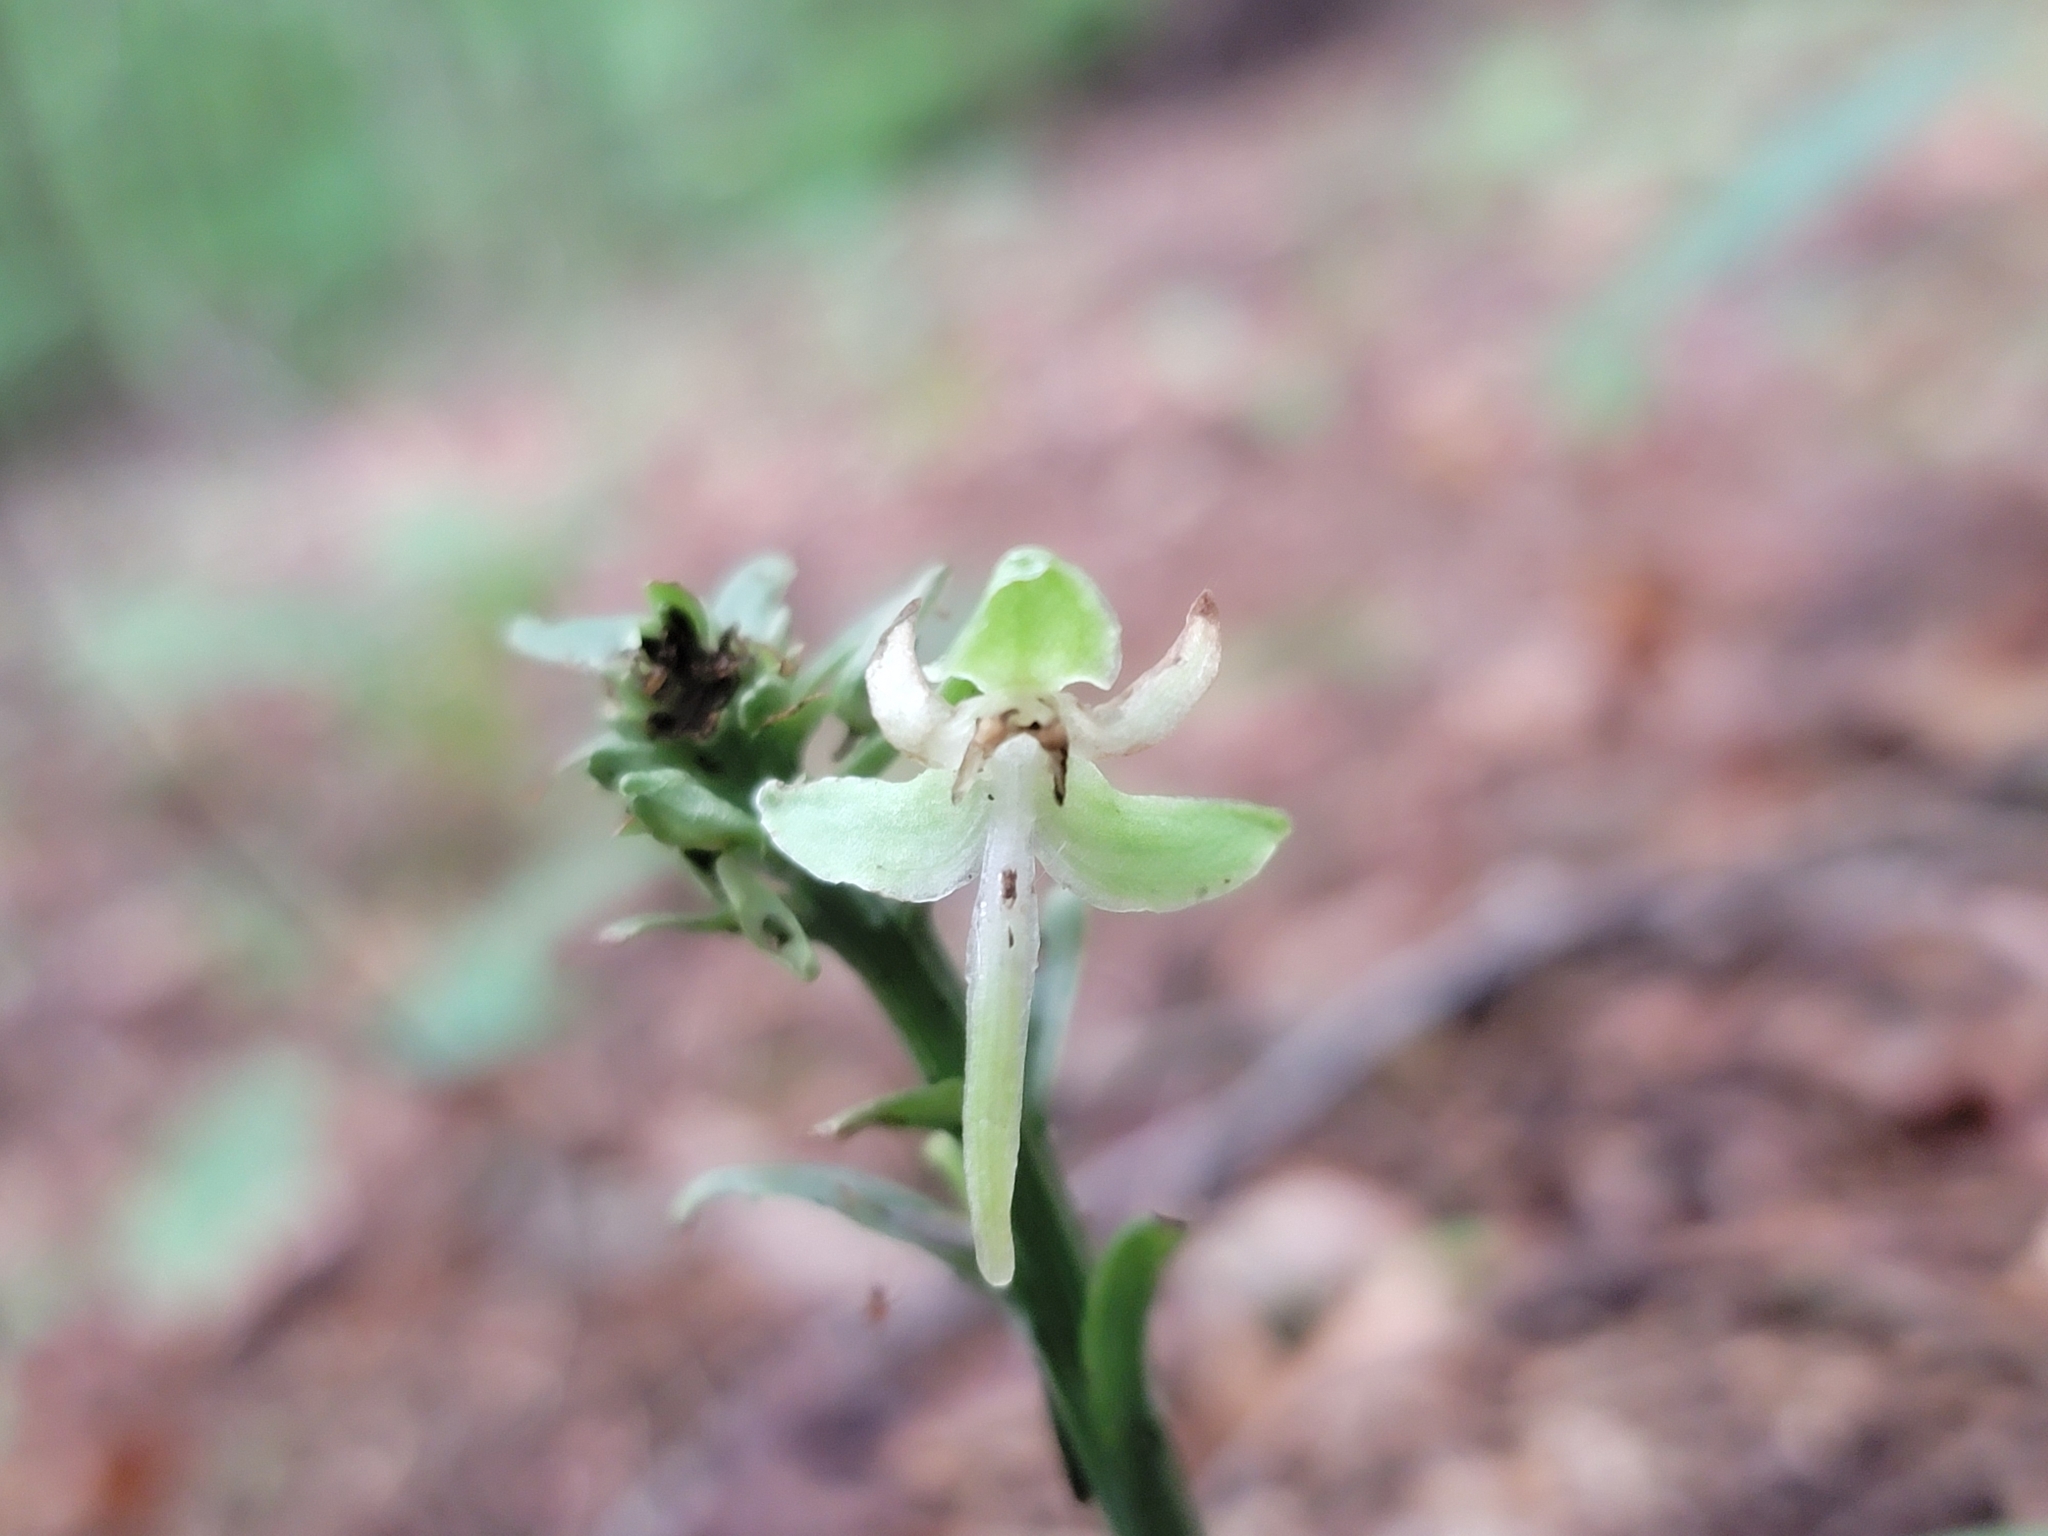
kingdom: Plantae
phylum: Tracheophyta
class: Liliopsida
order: Asparagales
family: Orchidaceae
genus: Platanthera
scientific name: Platanthera orbiculata
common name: Large round-leaved orchid
